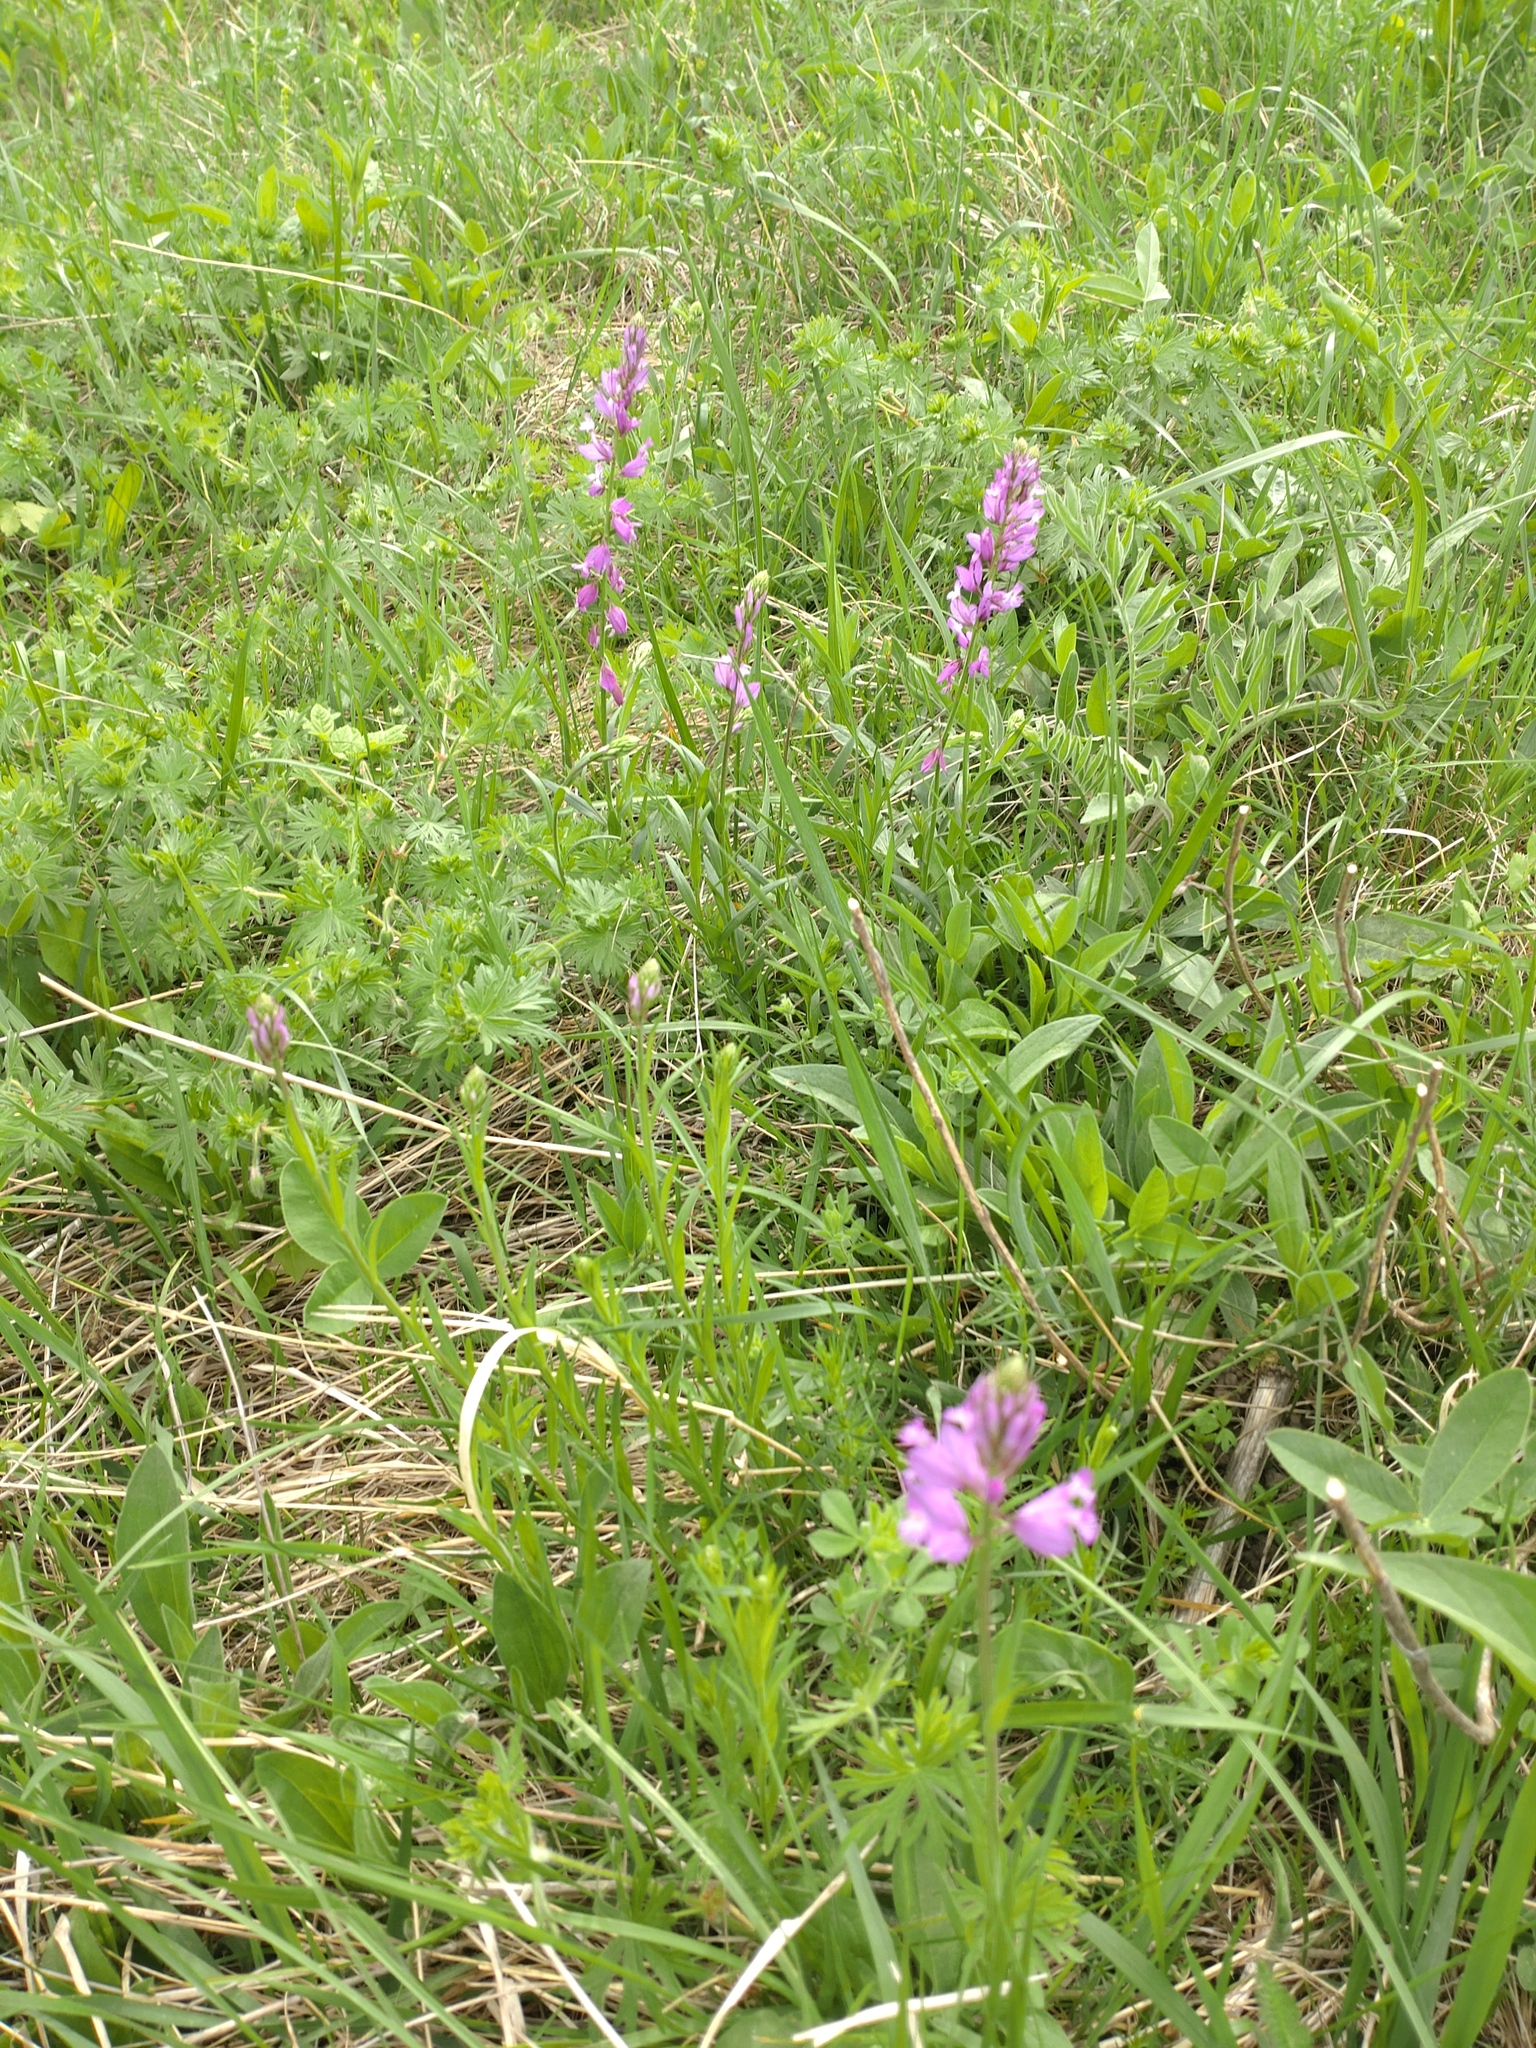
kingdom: Plantae
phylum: Tracheophyta
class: Magnoliopsida
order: Fabales
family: Polygalaceae
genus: Polygala
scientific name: Polygala major
